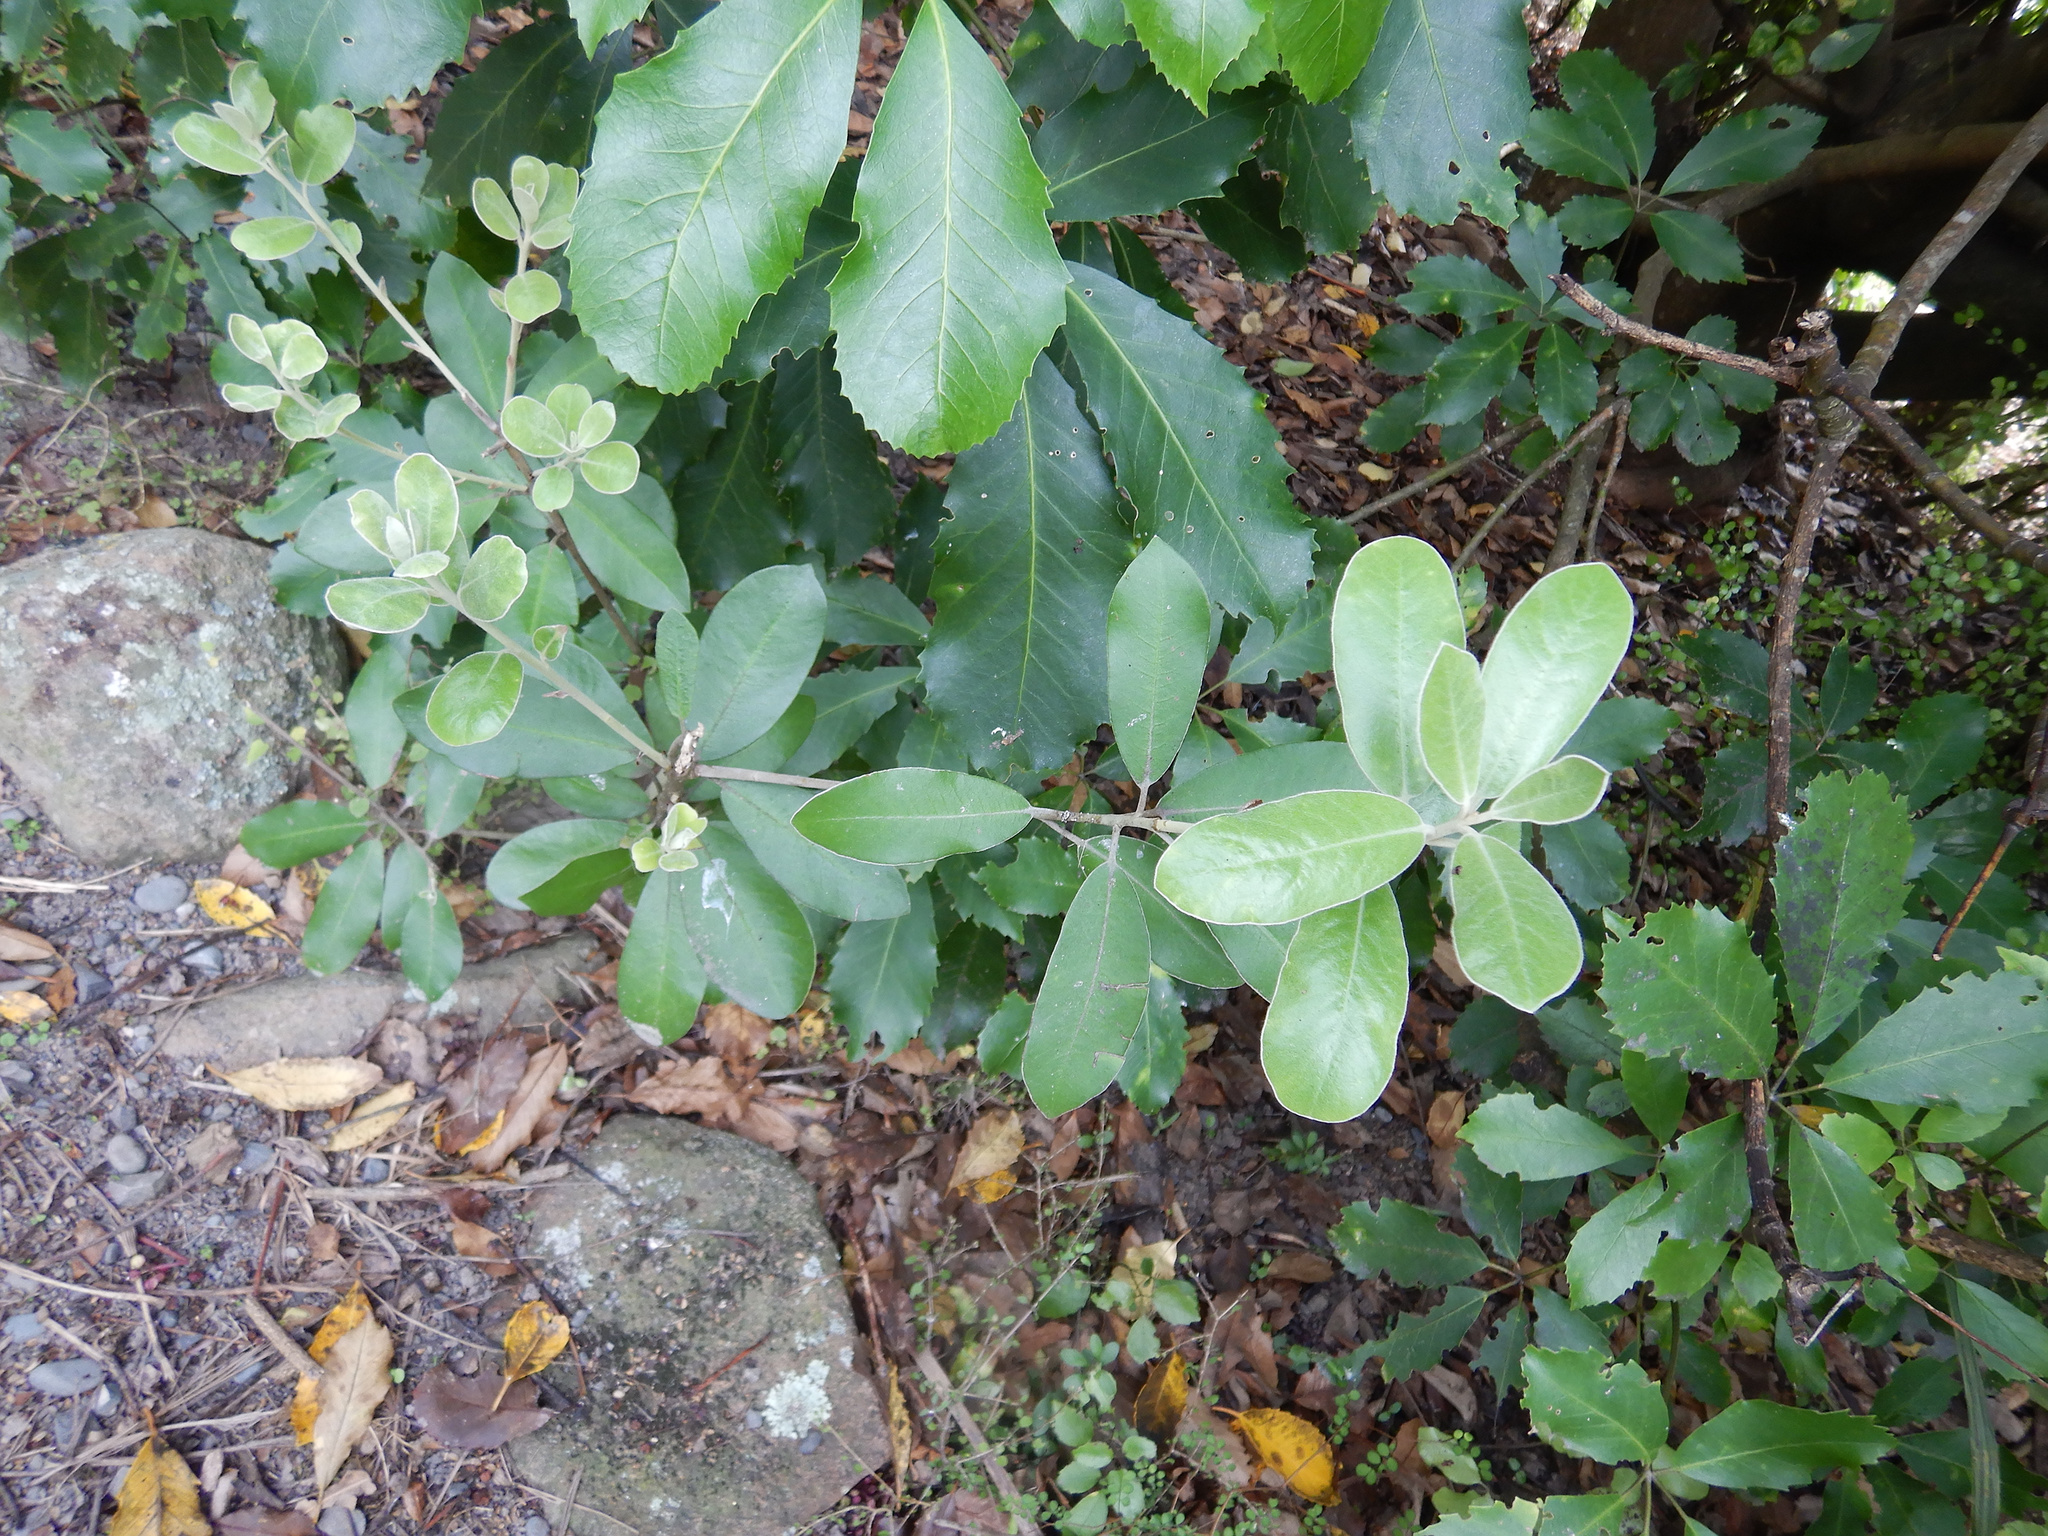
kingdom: Plantae
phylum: Tracheophyta
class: Magnoliopsida
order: Apiales
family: Pittosporaceae
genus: Pittosporum
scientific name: Pittosporum ralphii
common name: Ralph's desertwillow
